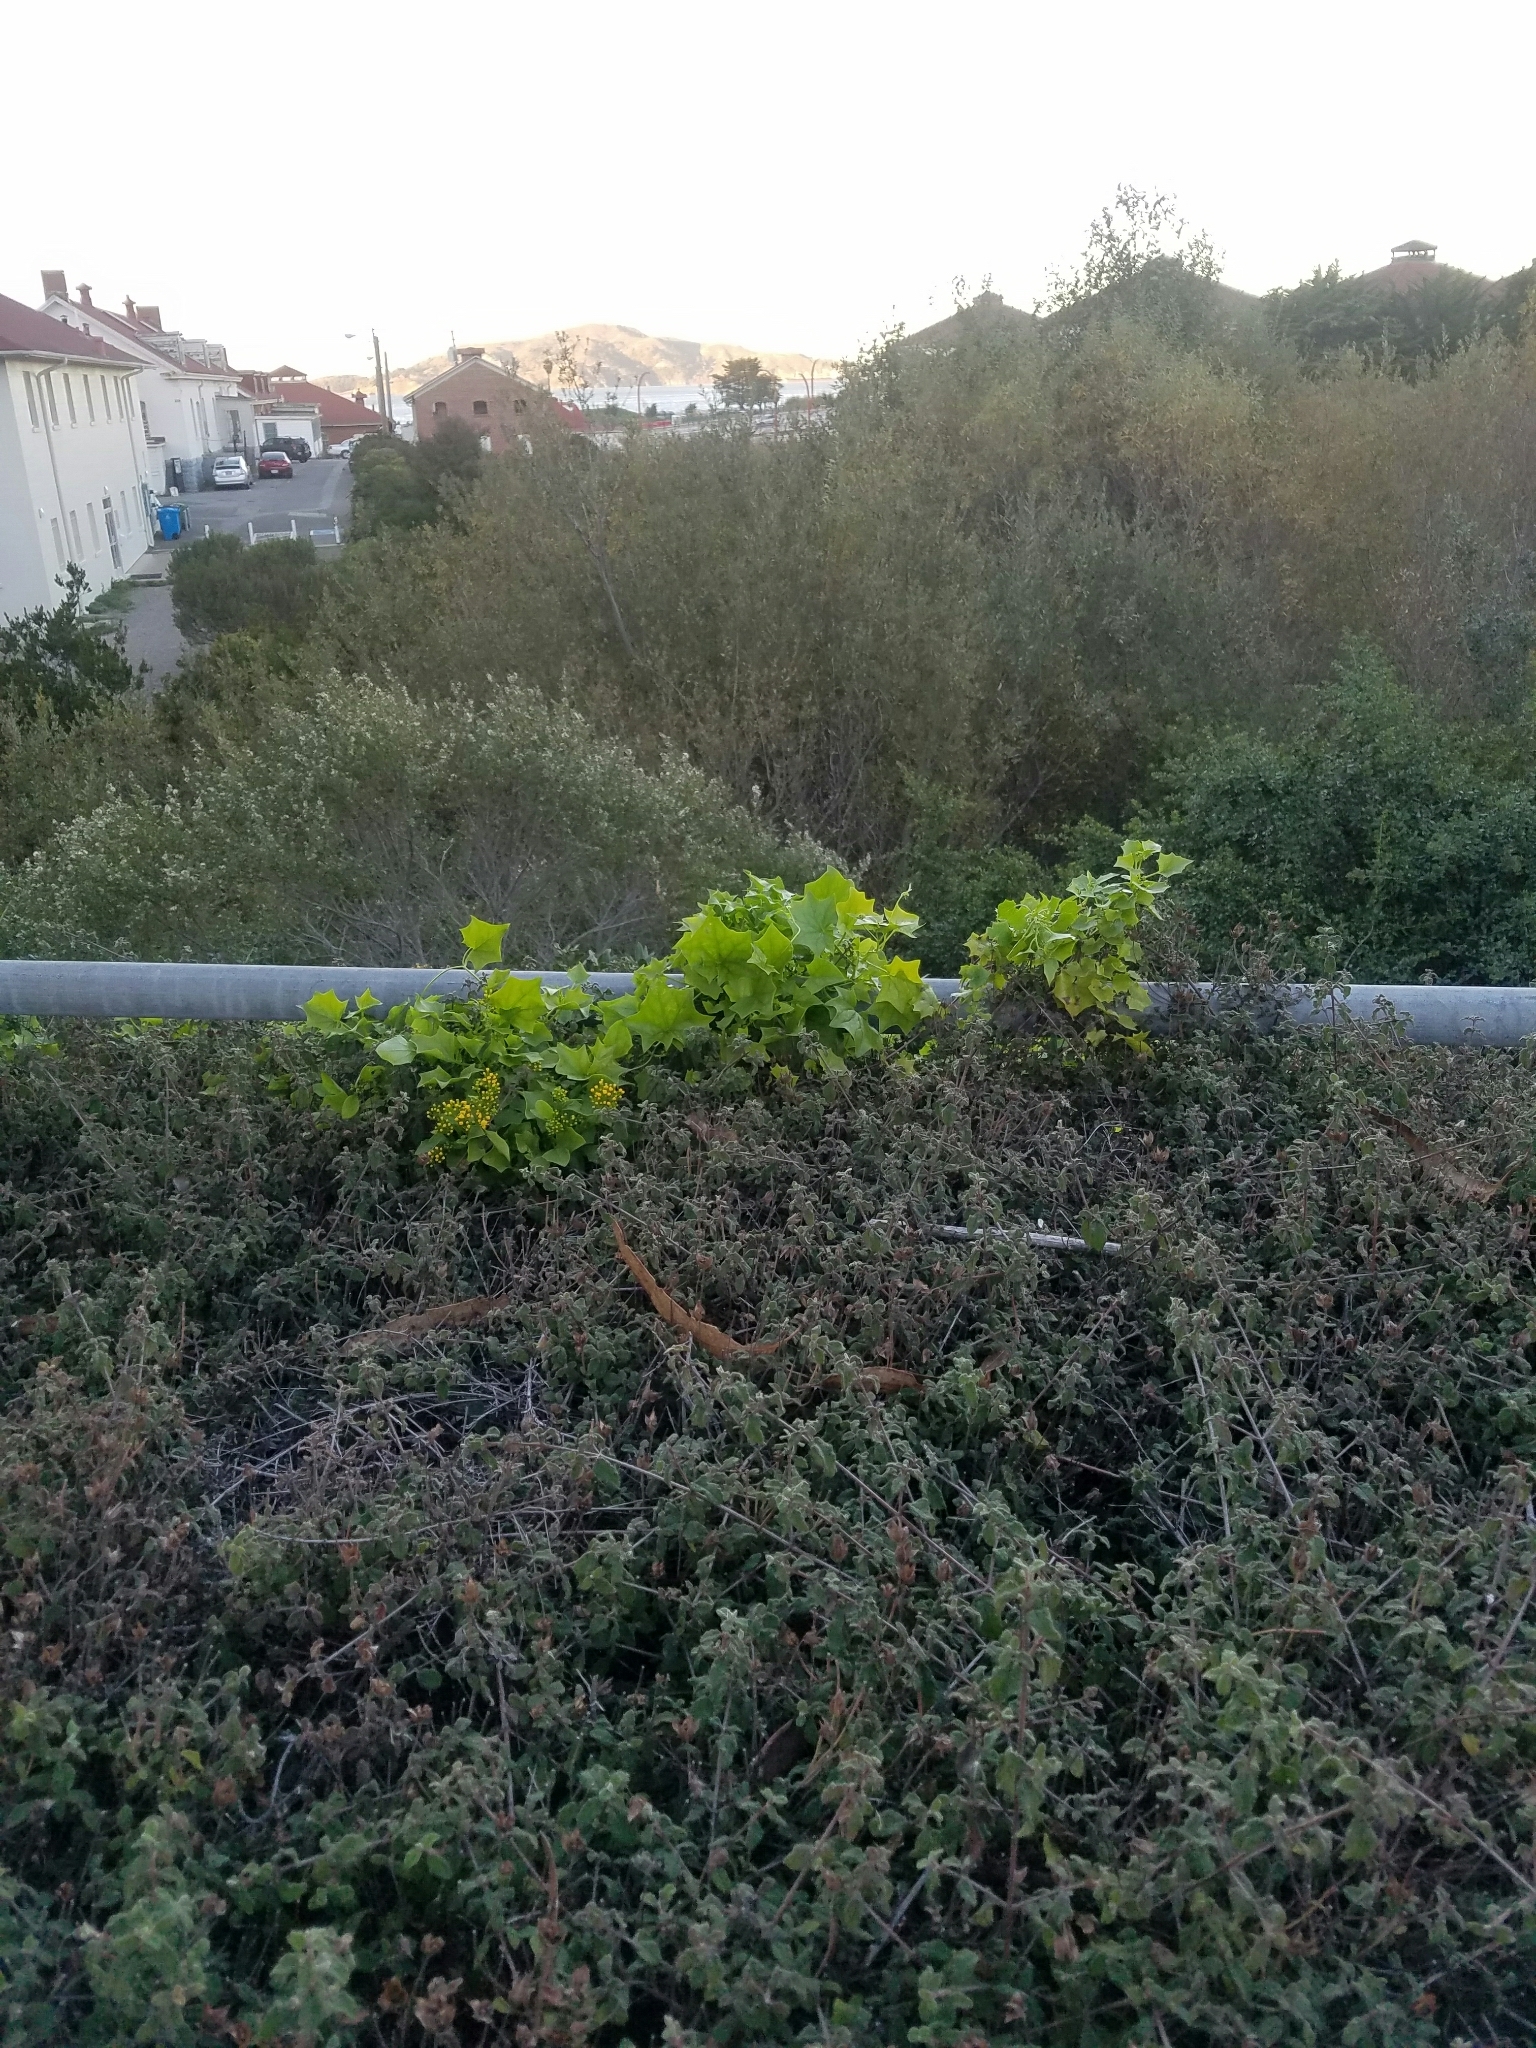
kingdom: Plantae
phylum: Tracheophyta
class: Magnoliopsida
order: Asterales
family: Asteraceae
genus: Delairea
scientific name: Delairea odorata
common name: Cape-ivy
